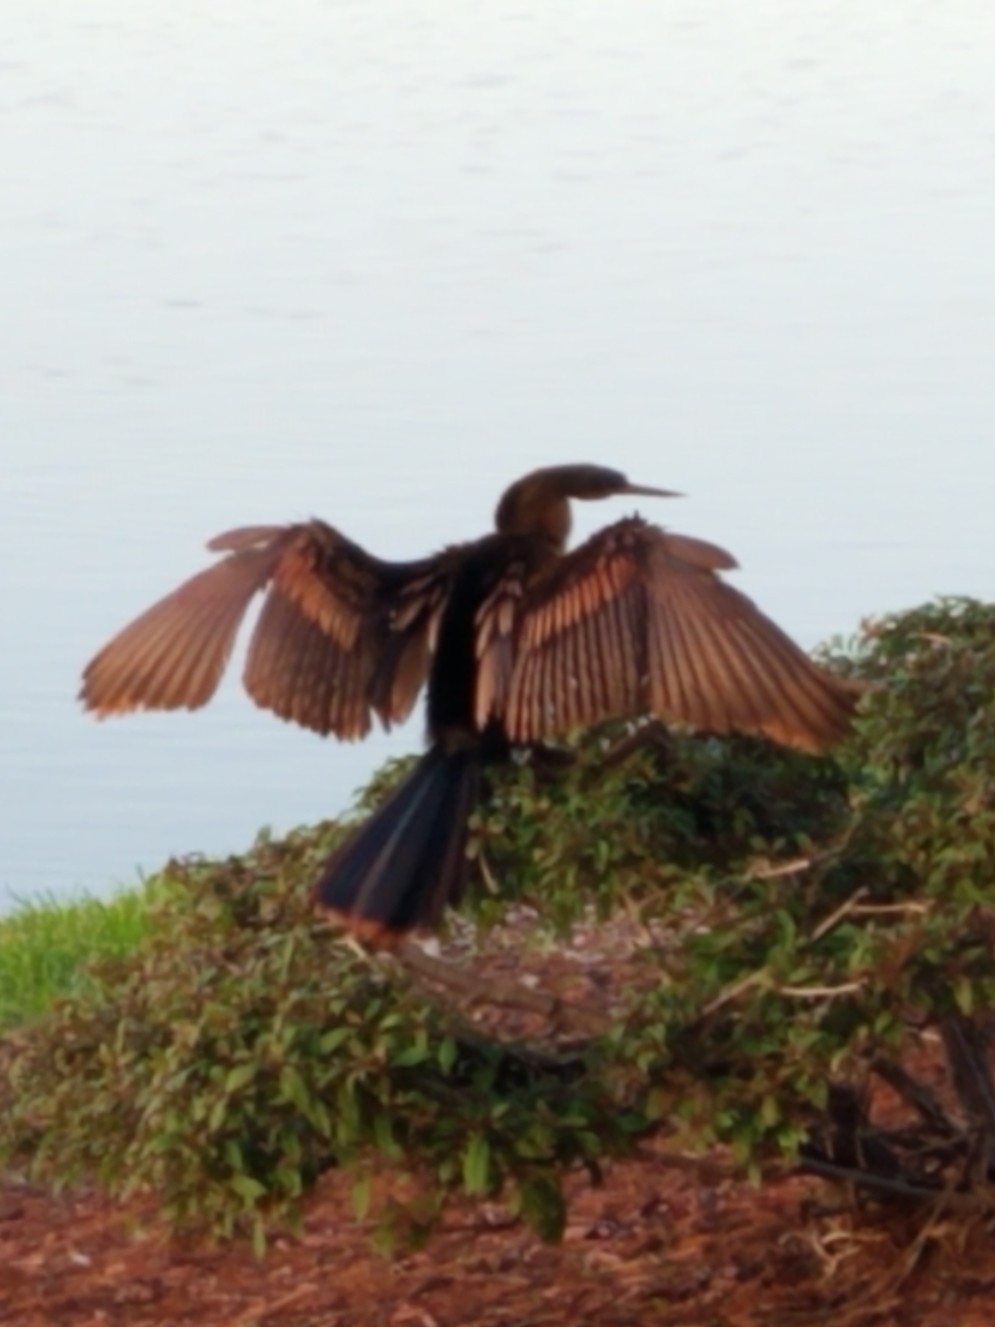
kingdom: Animalia
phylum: Chordata
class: Aves
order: Suliformes
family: Anhingidae
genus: Anhinga
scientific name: Anhinga anhinga
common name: Anhinga
